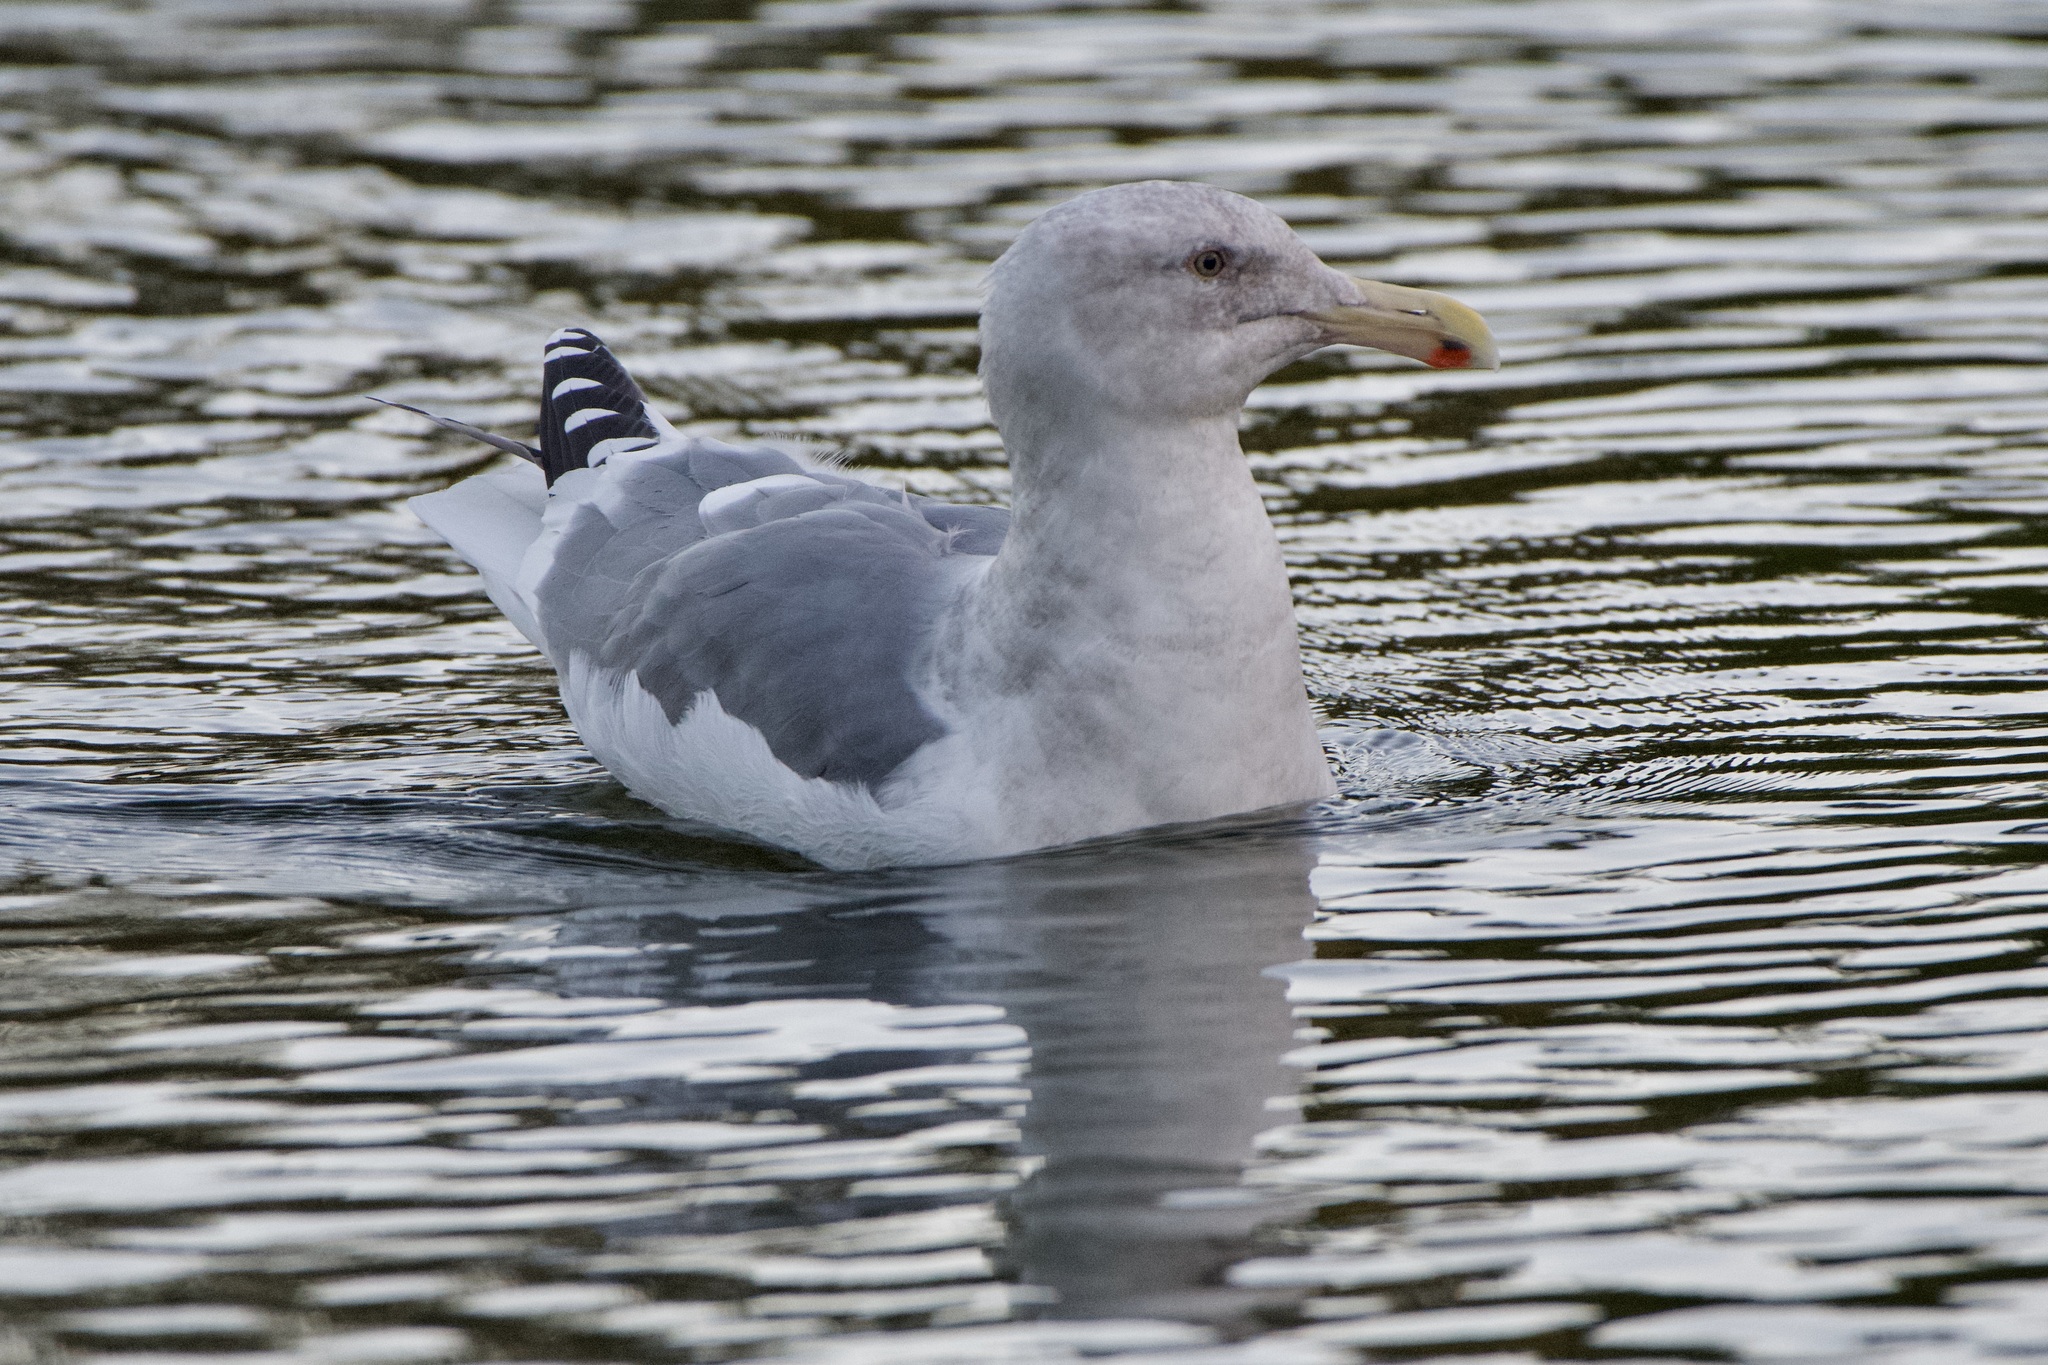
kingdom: Animalia
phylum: Chordata
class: Aves
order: Charadriiformes
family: Laridae
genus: Larus
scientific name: Larus
